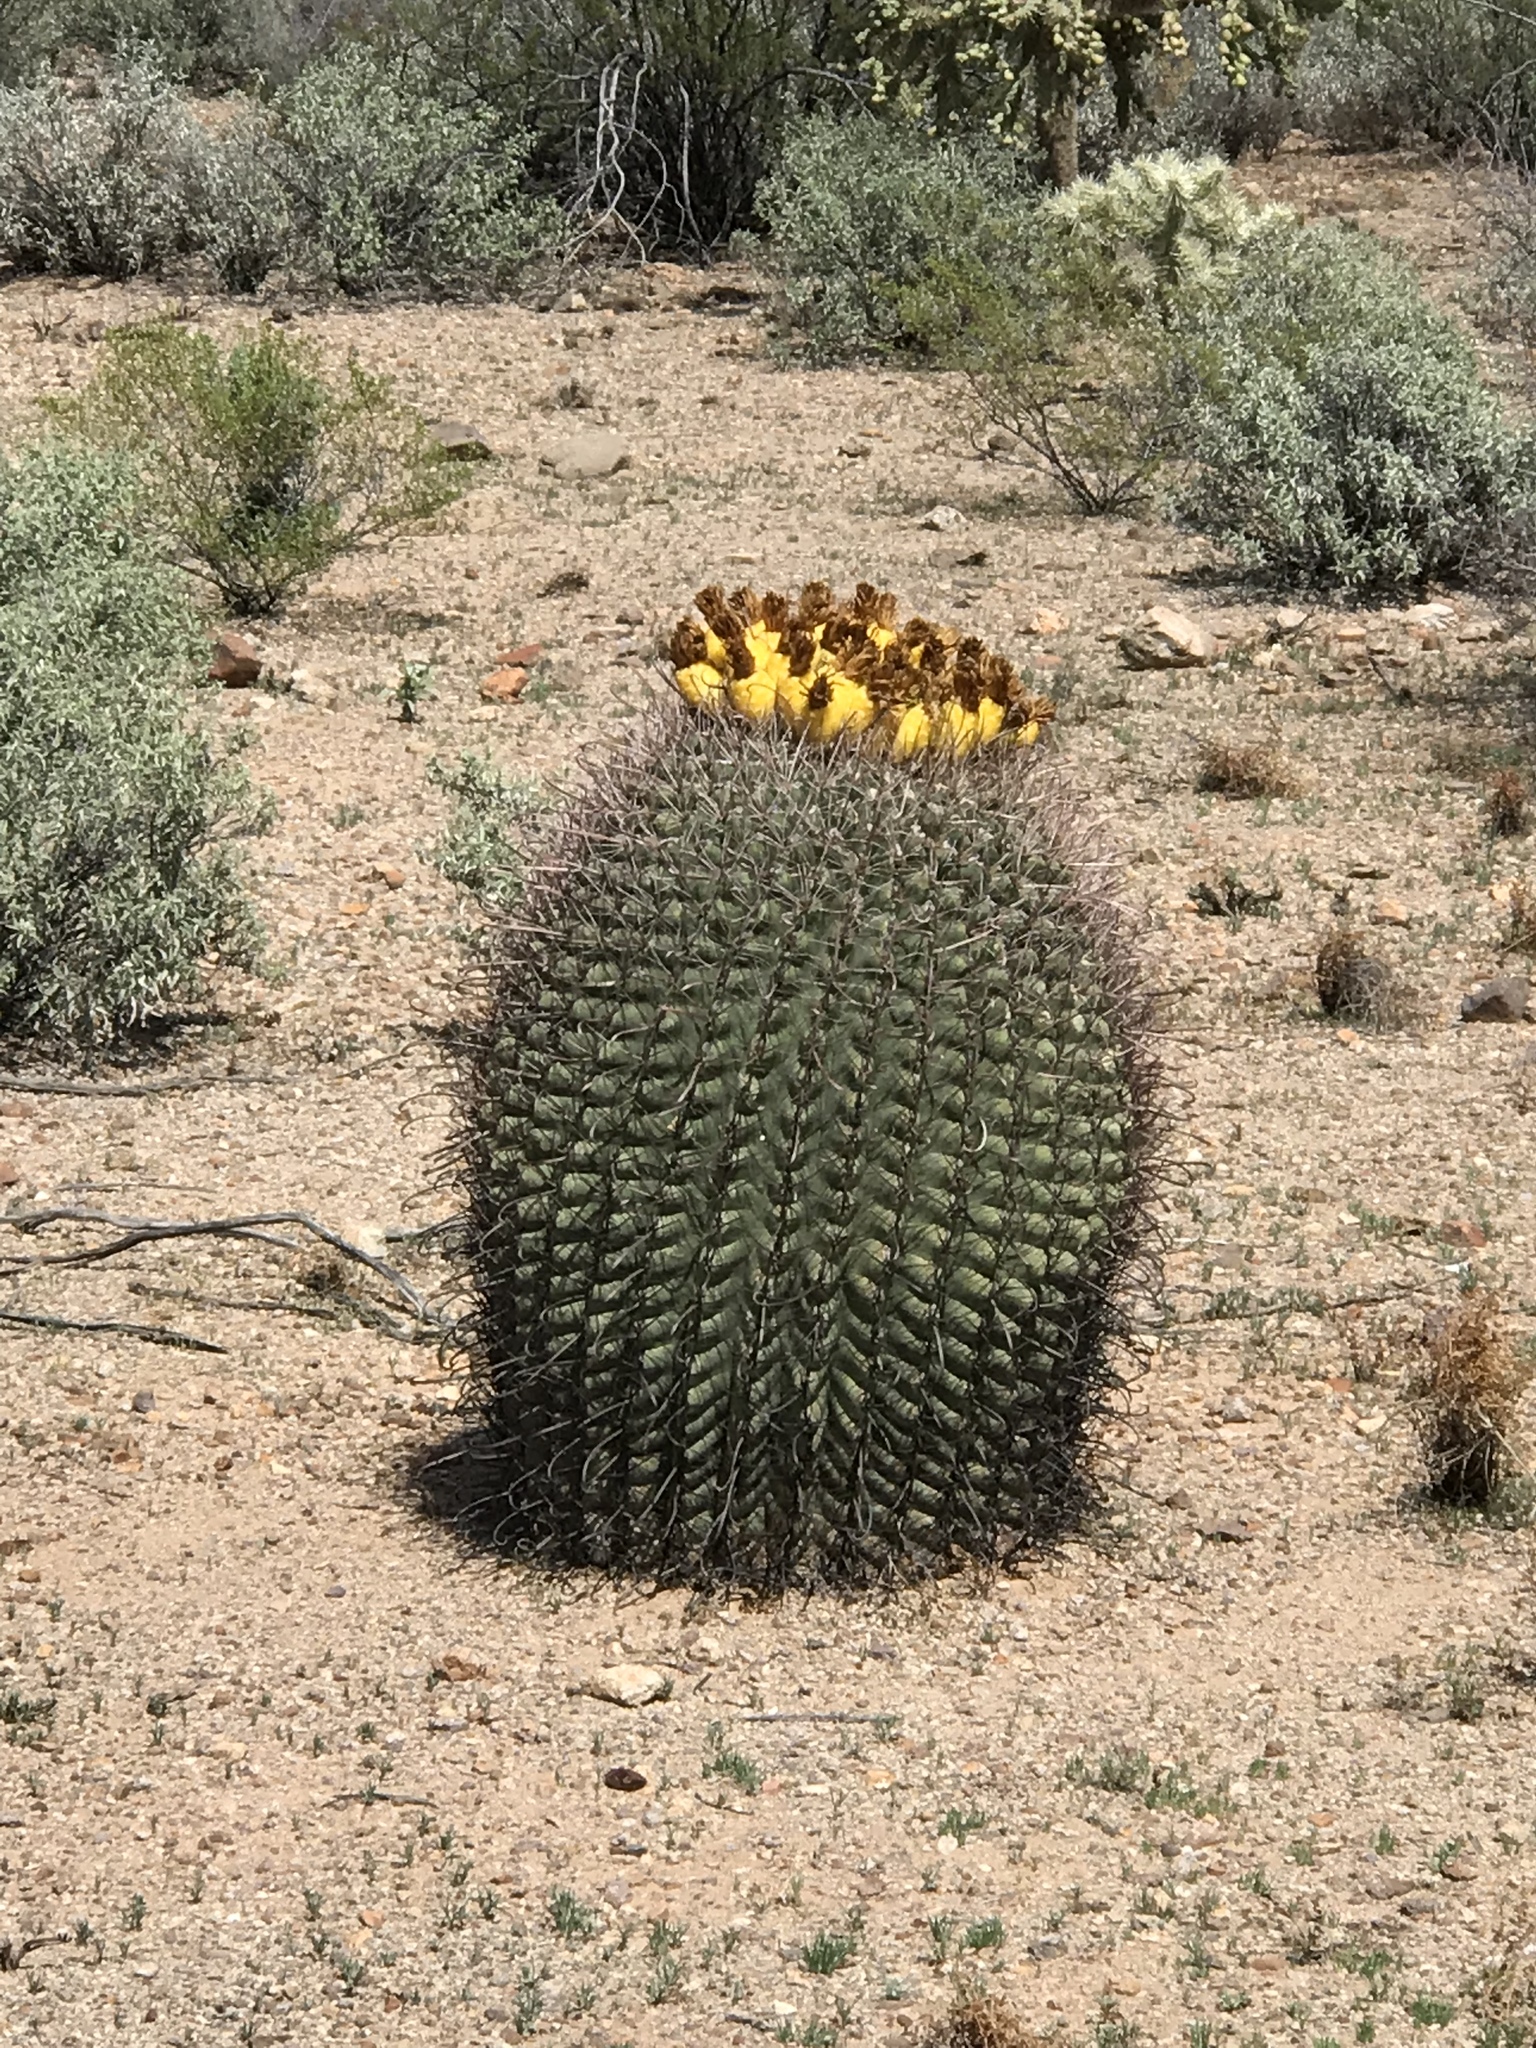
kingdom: Plantae
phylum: Tracheophyta
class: Magnoliopsida
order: Caryophyllales
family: Cactaceae
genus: Ferocactus
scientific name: Ferocactus wislizeni
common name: Candy barrel cactus
